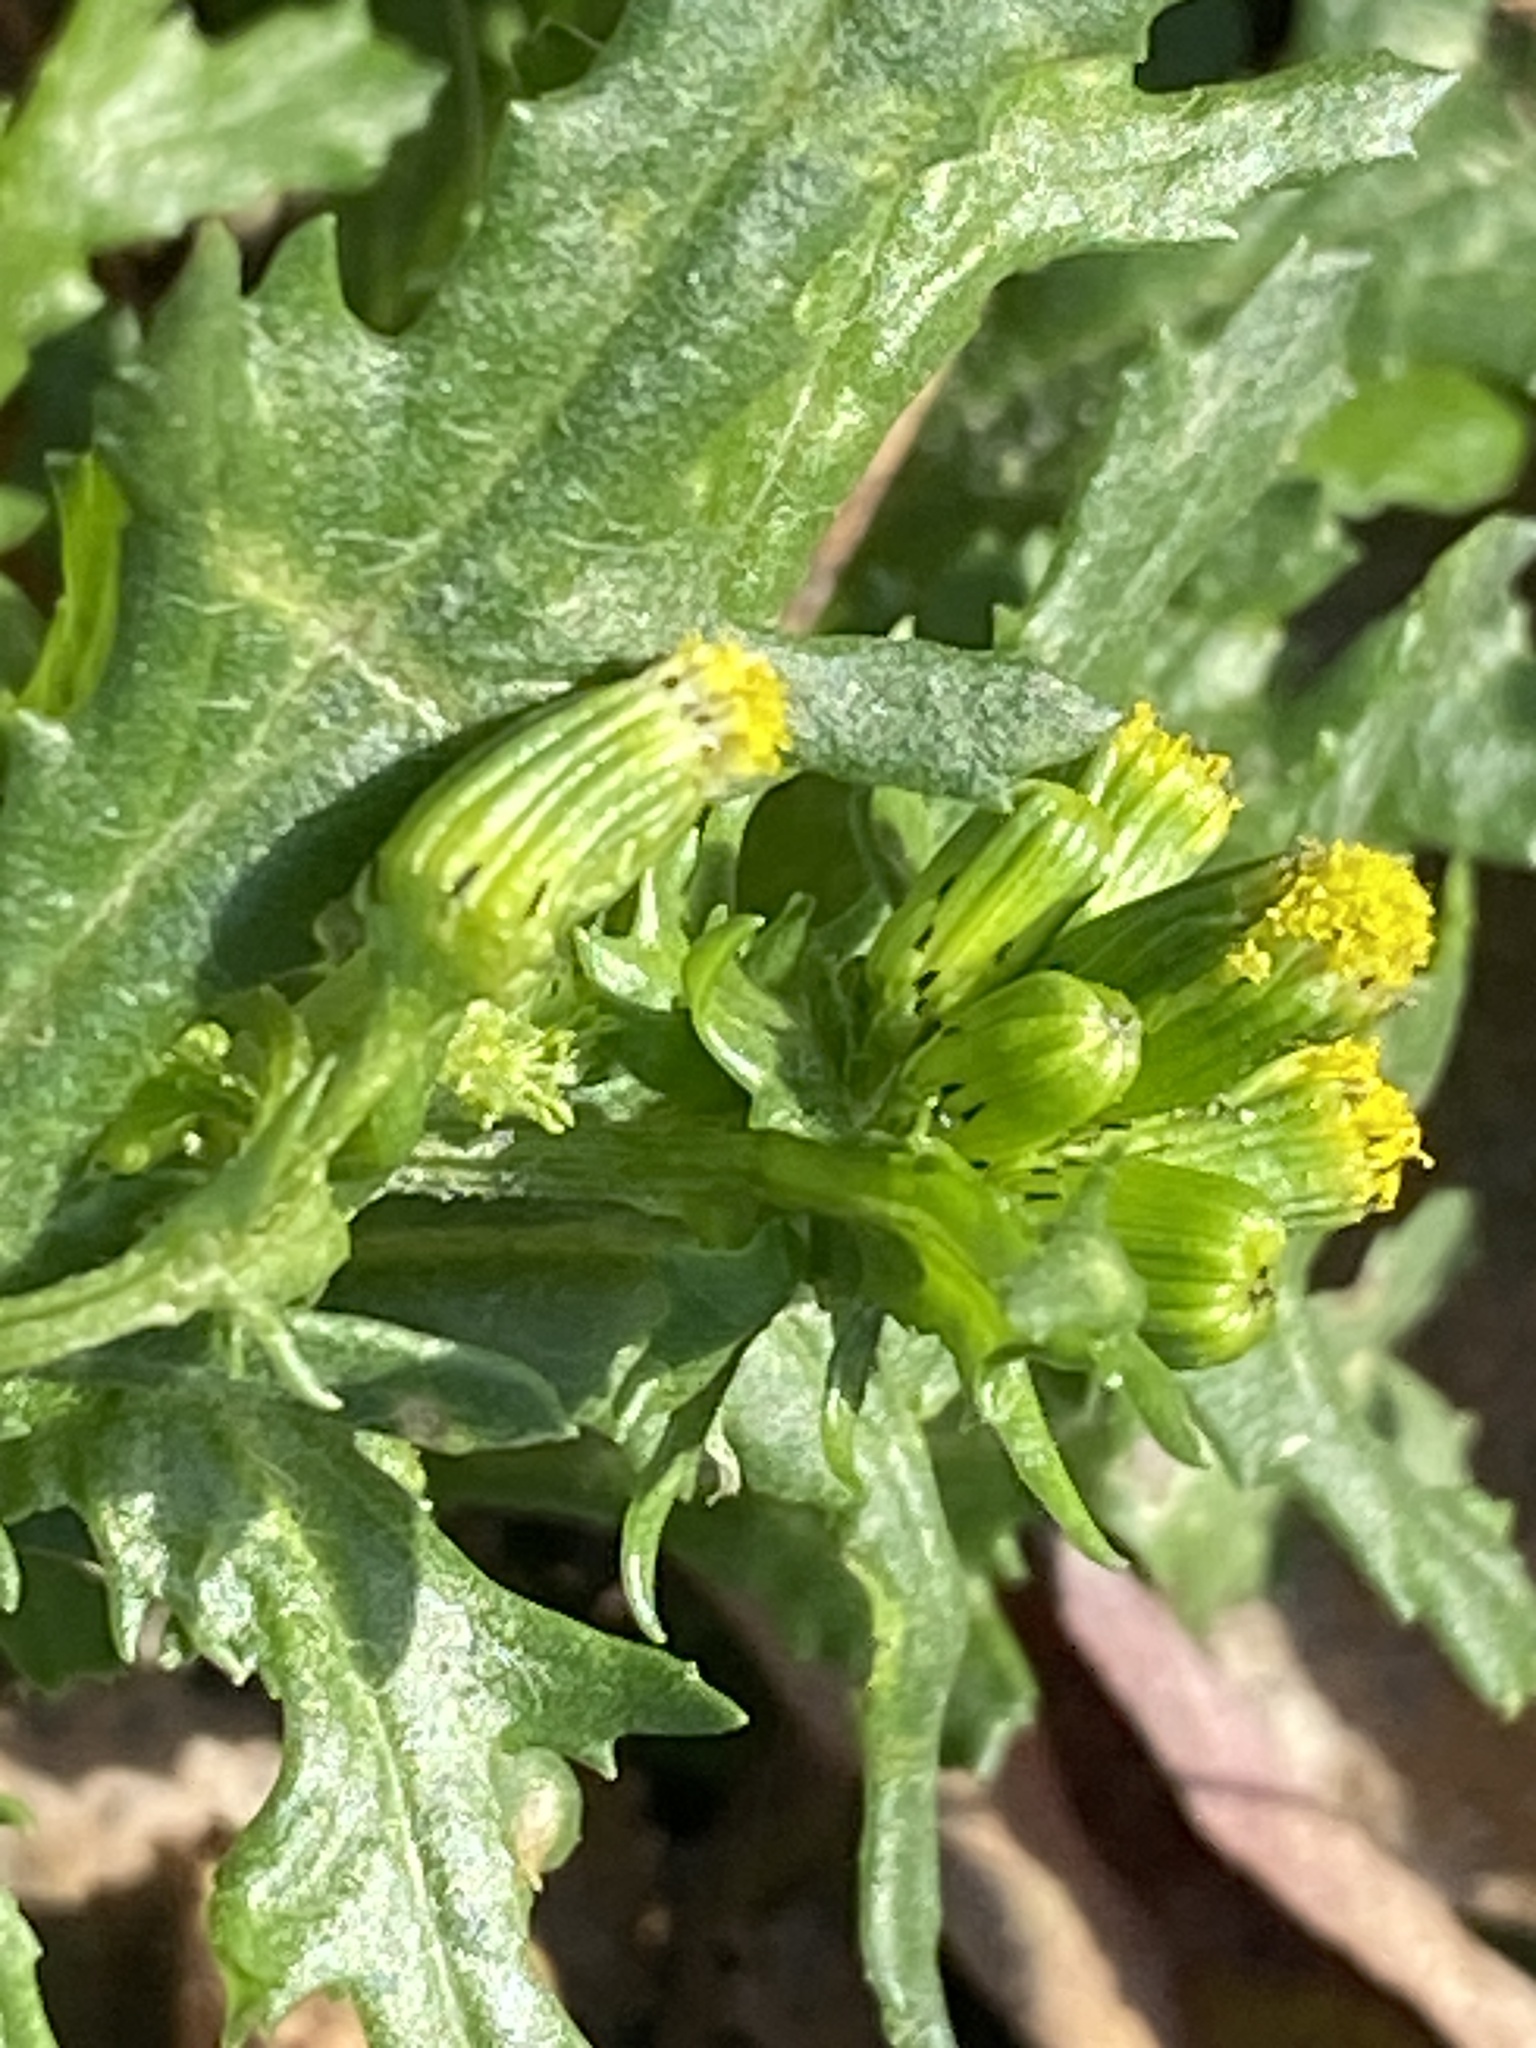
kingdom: Plantae
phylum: Tracheophyta
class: Magnoliopsida
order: Asterales
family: Asteraceae
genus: Senecio
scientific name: Senecio vulgaris
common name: Old-man-in-the-spring
